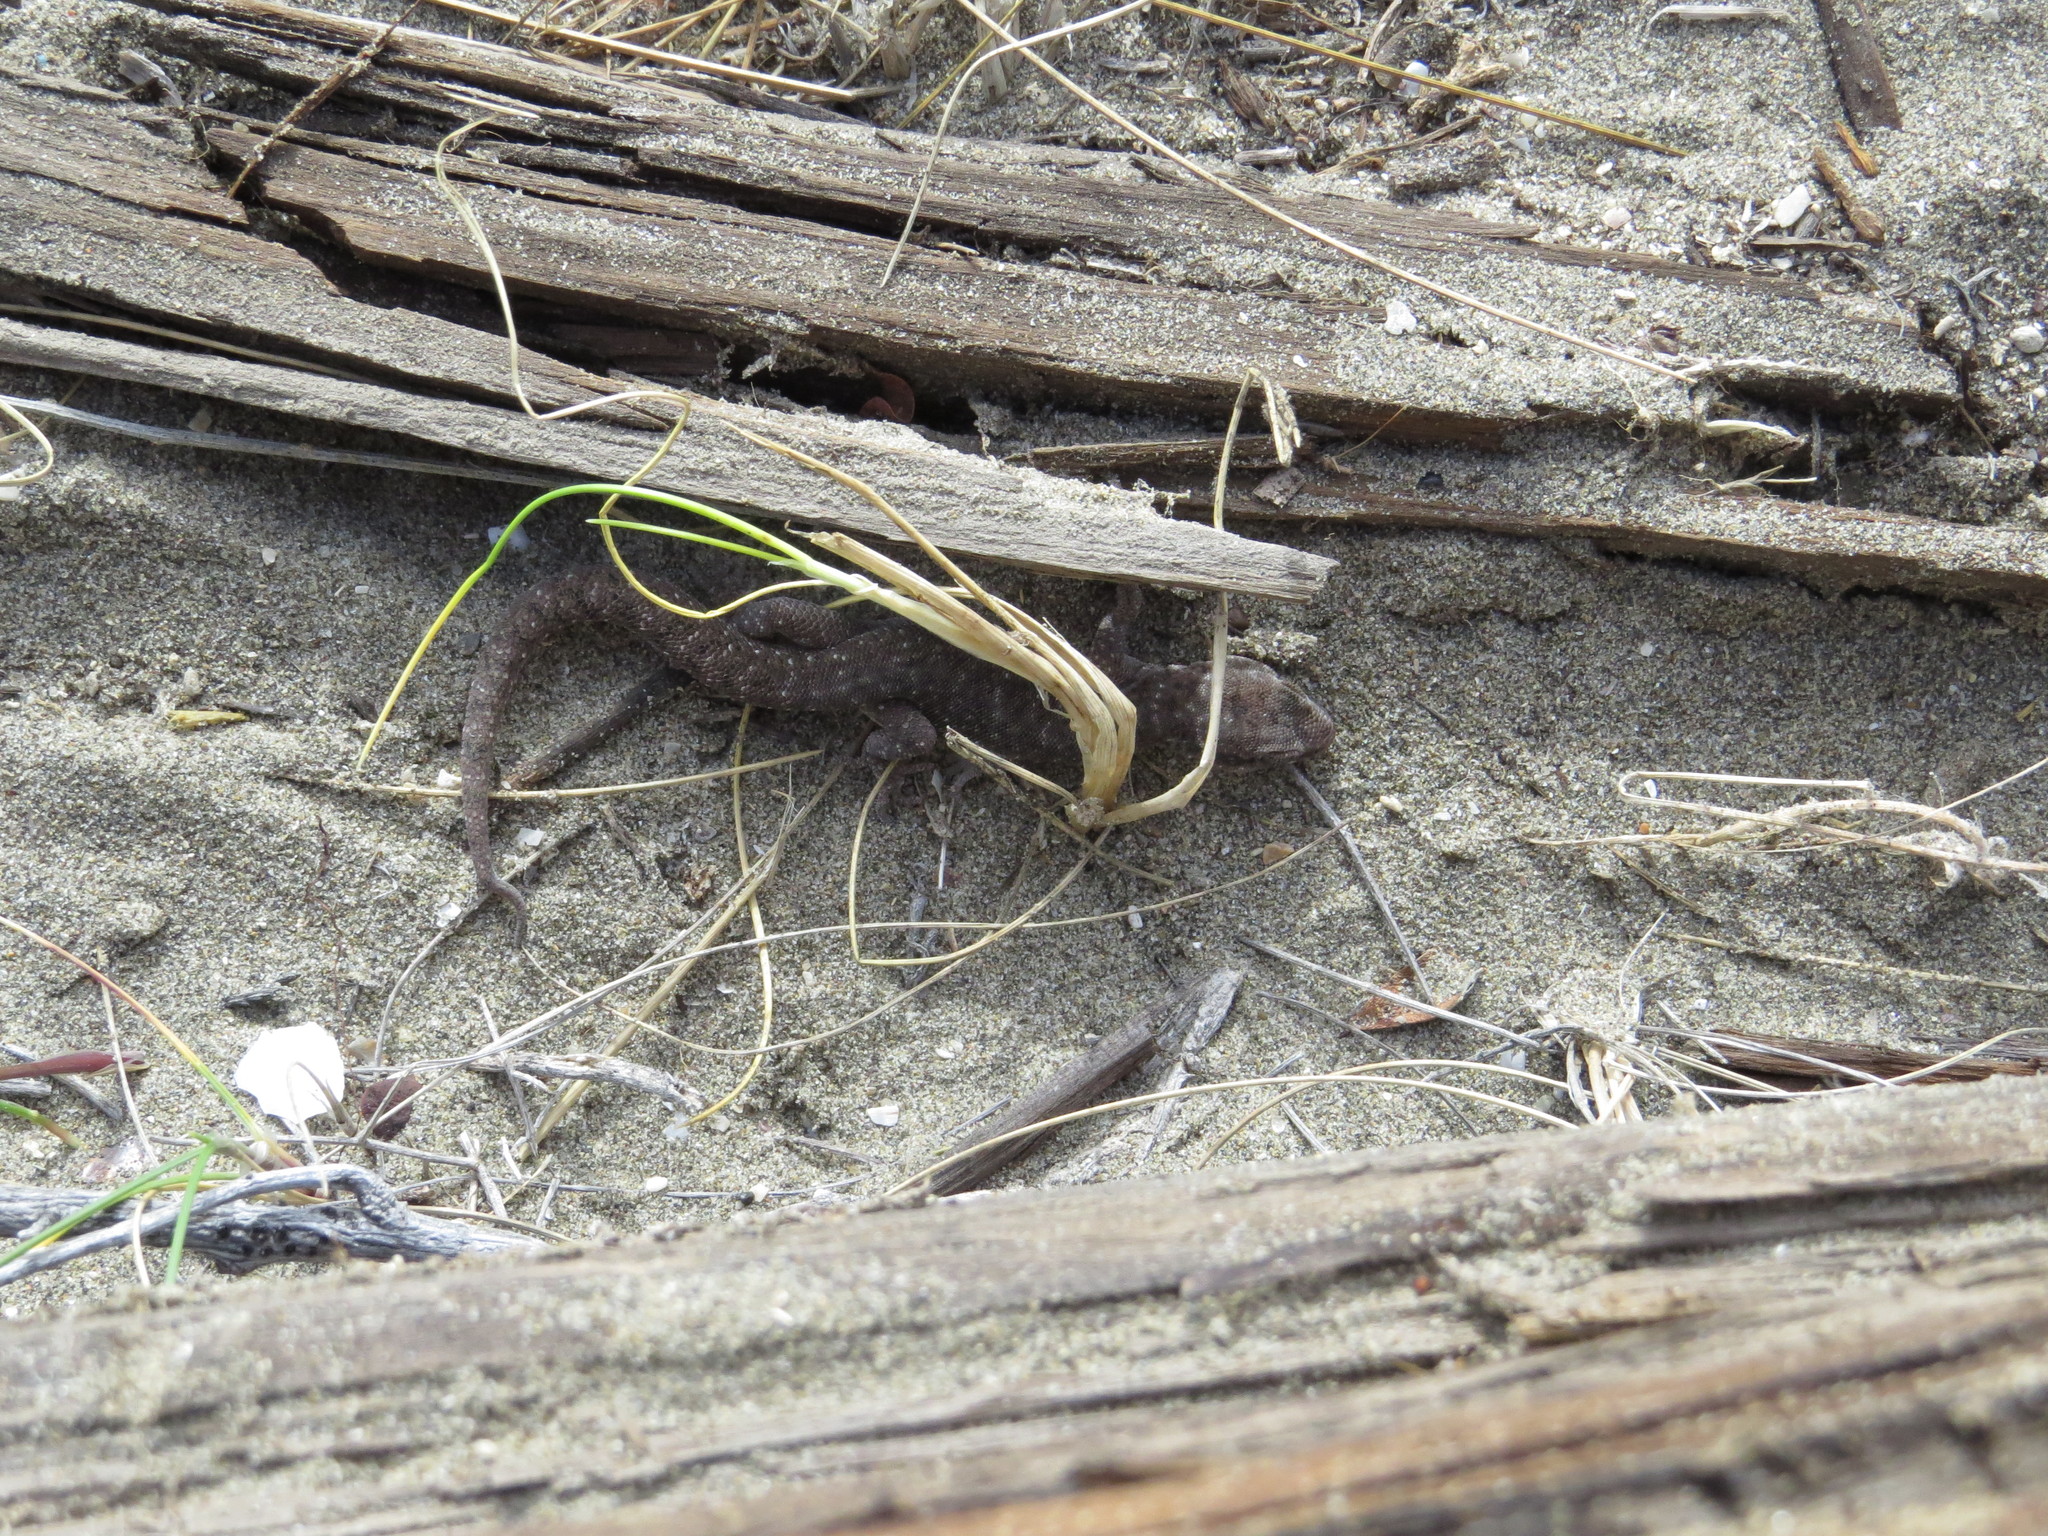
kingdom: Animalia
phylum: Chordata
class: Squamata
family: Phyllodactylidae
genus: Homonota
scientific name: Homonota darwinii
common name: Darwin's marked gecko
